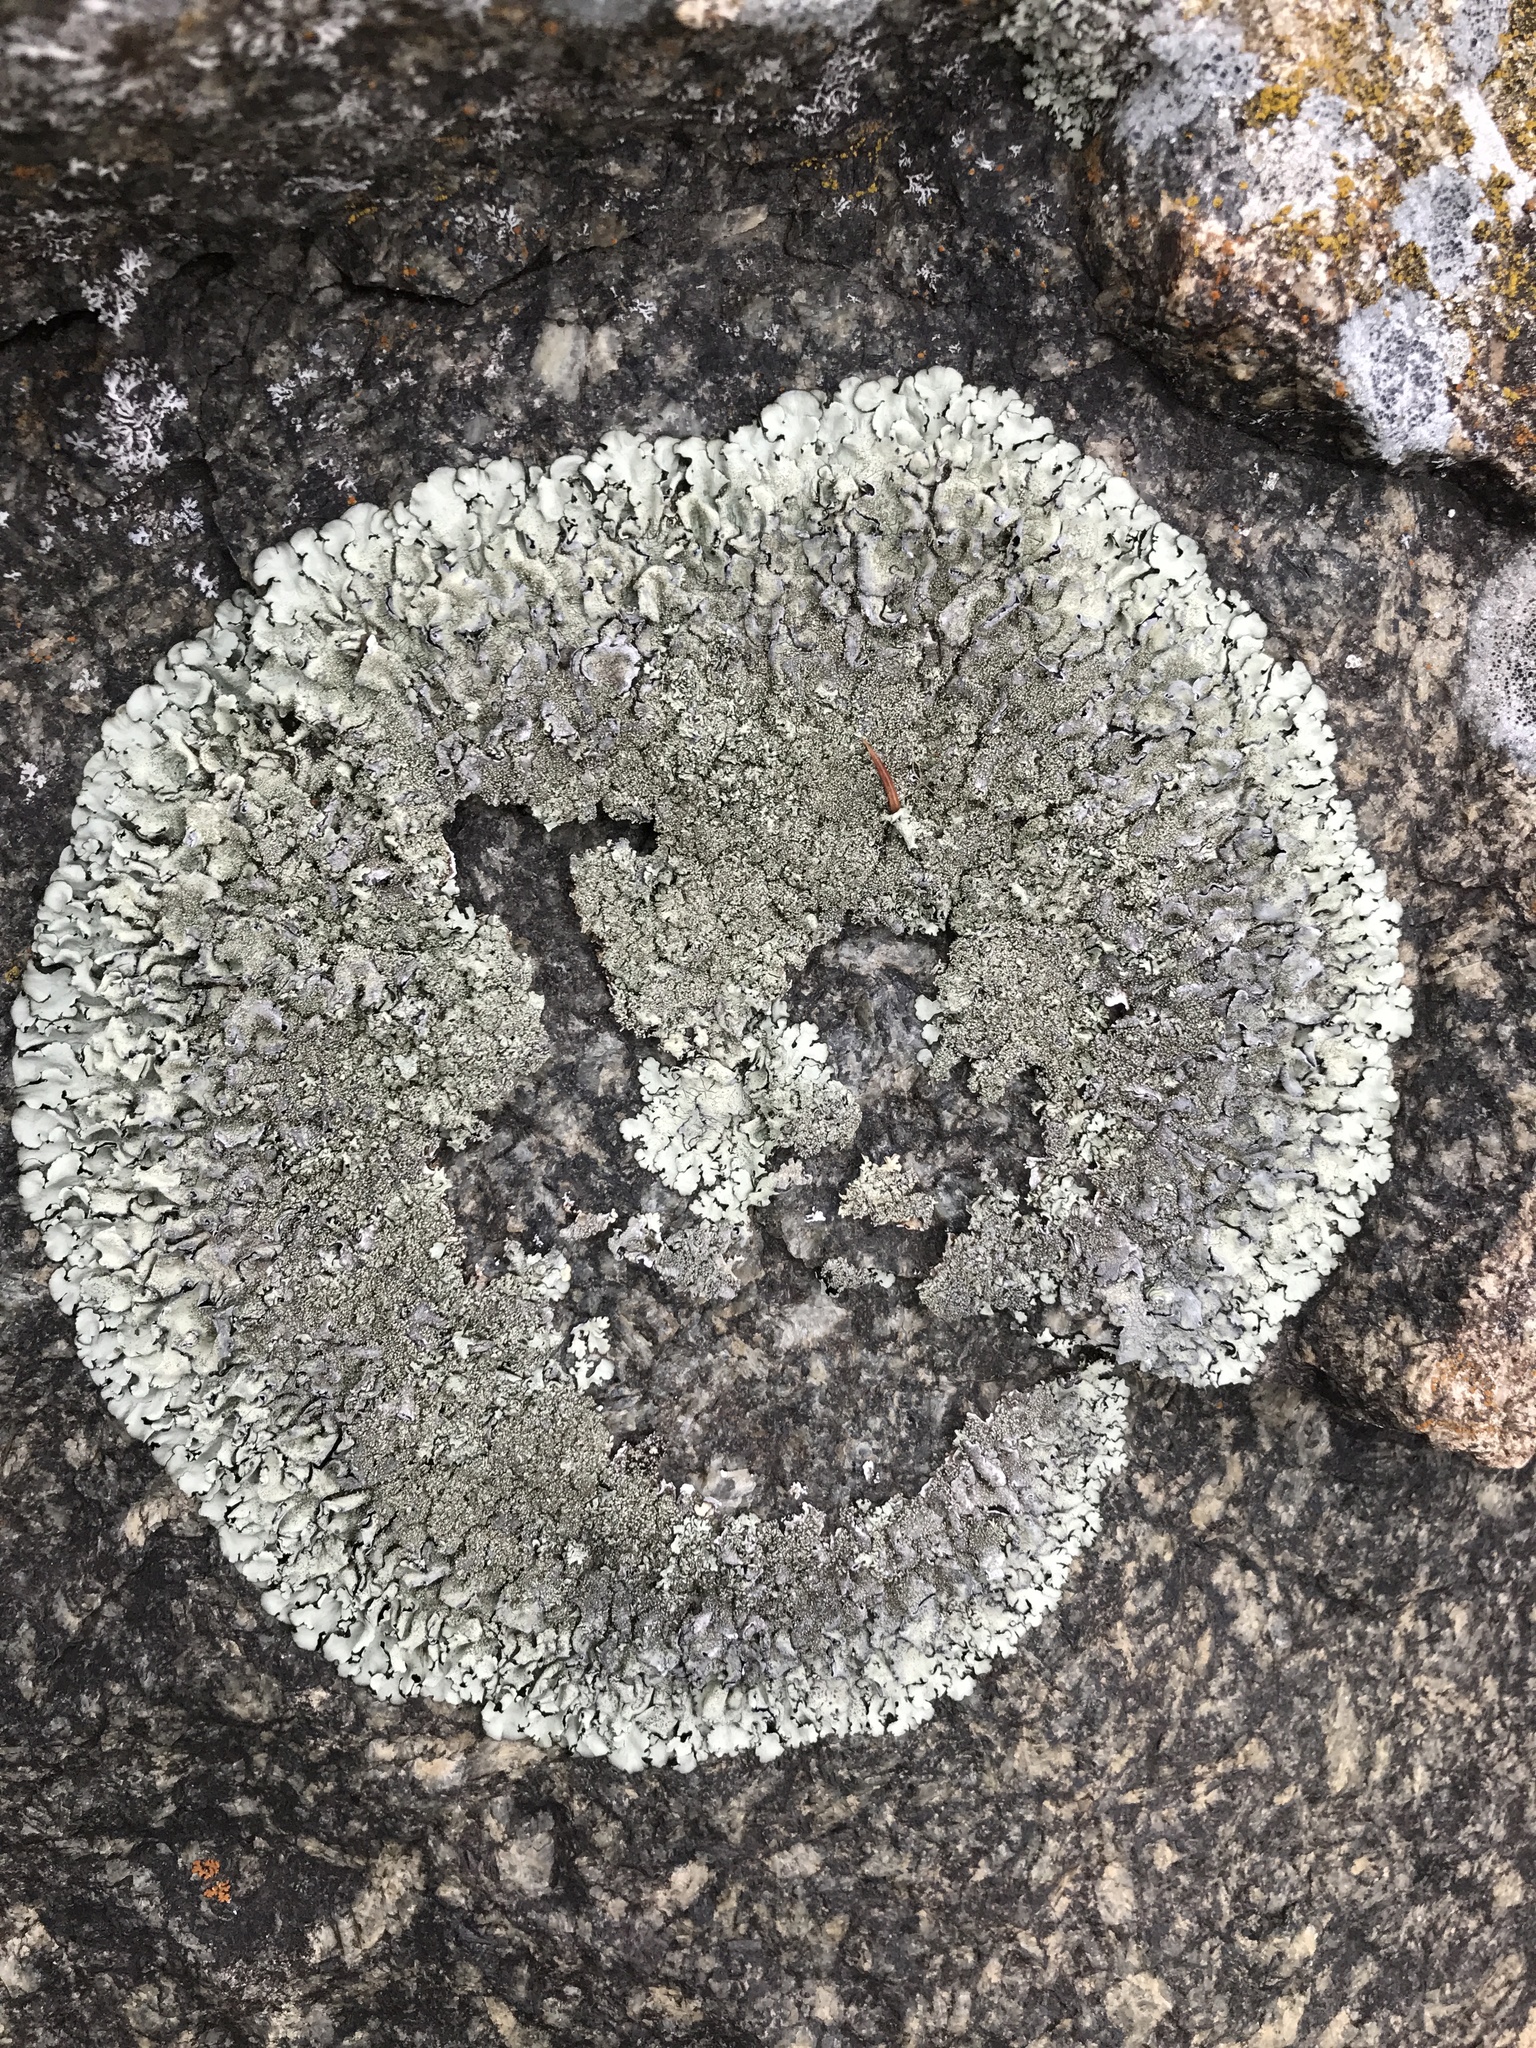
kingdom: Fungi
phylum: Ascomycota
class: Lecanoromycetes
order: Lecanorales
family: Parmeliaceae
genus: Xanthoparmelia
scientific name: Xanthoparmelia conspersa
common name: Peppered rock shield
